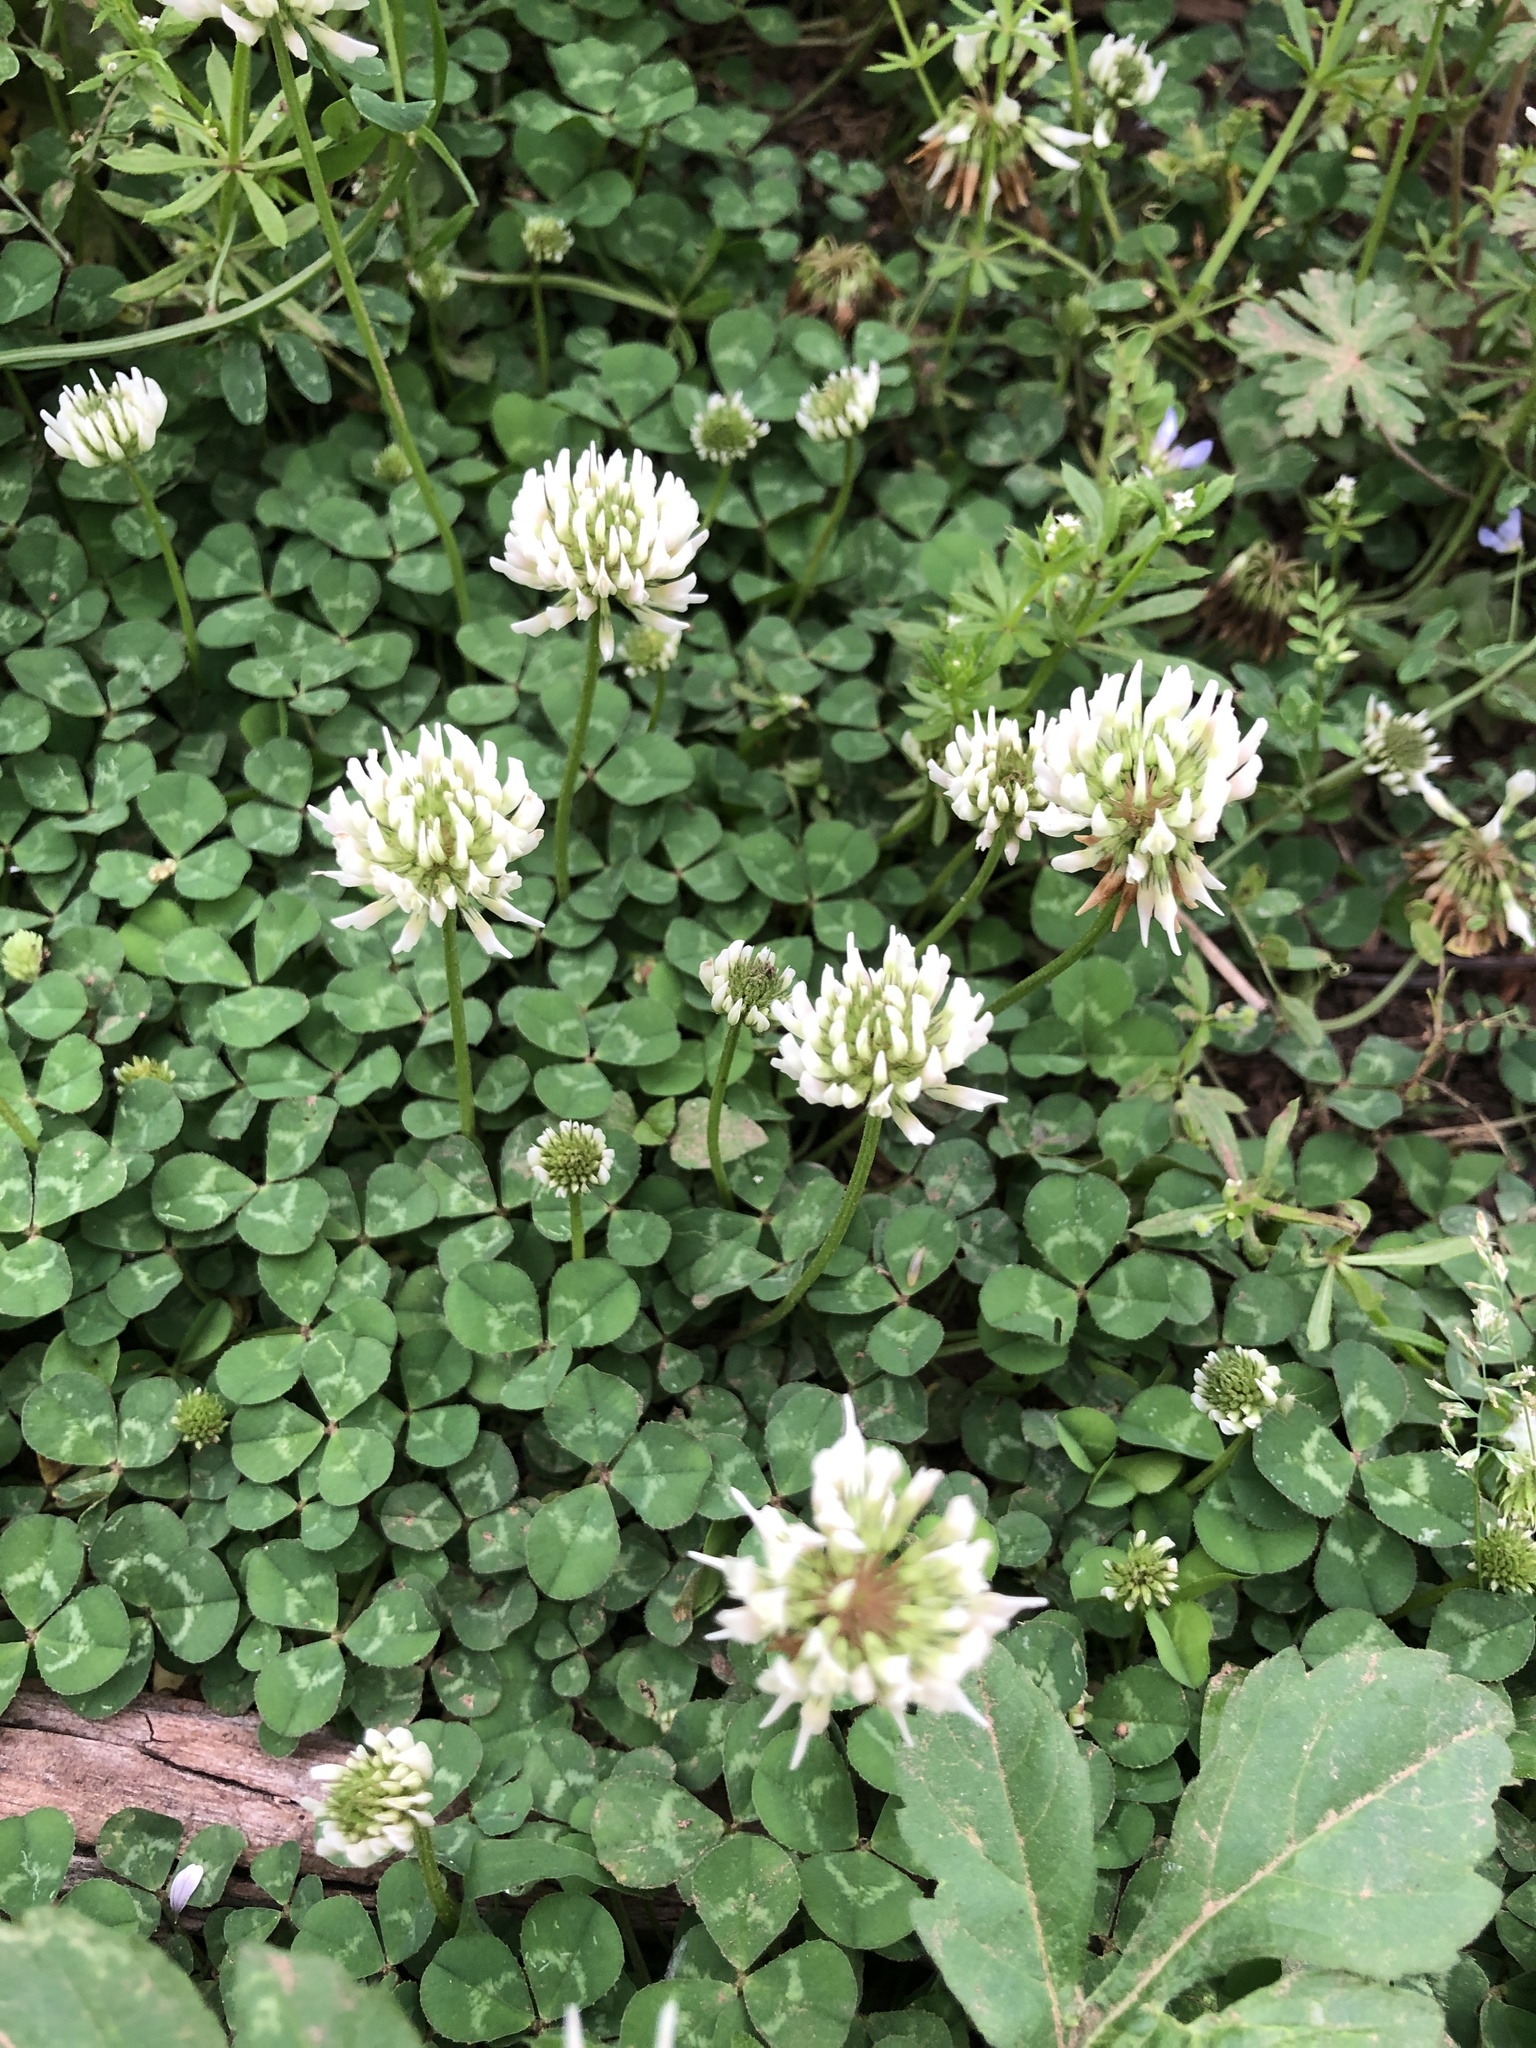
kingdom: Plantae
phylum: Tracheophyta
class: Magnoliopsida
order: Fabales
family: Fabaceae
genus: Trifolium
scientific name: Trifolium repens
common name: White clover
